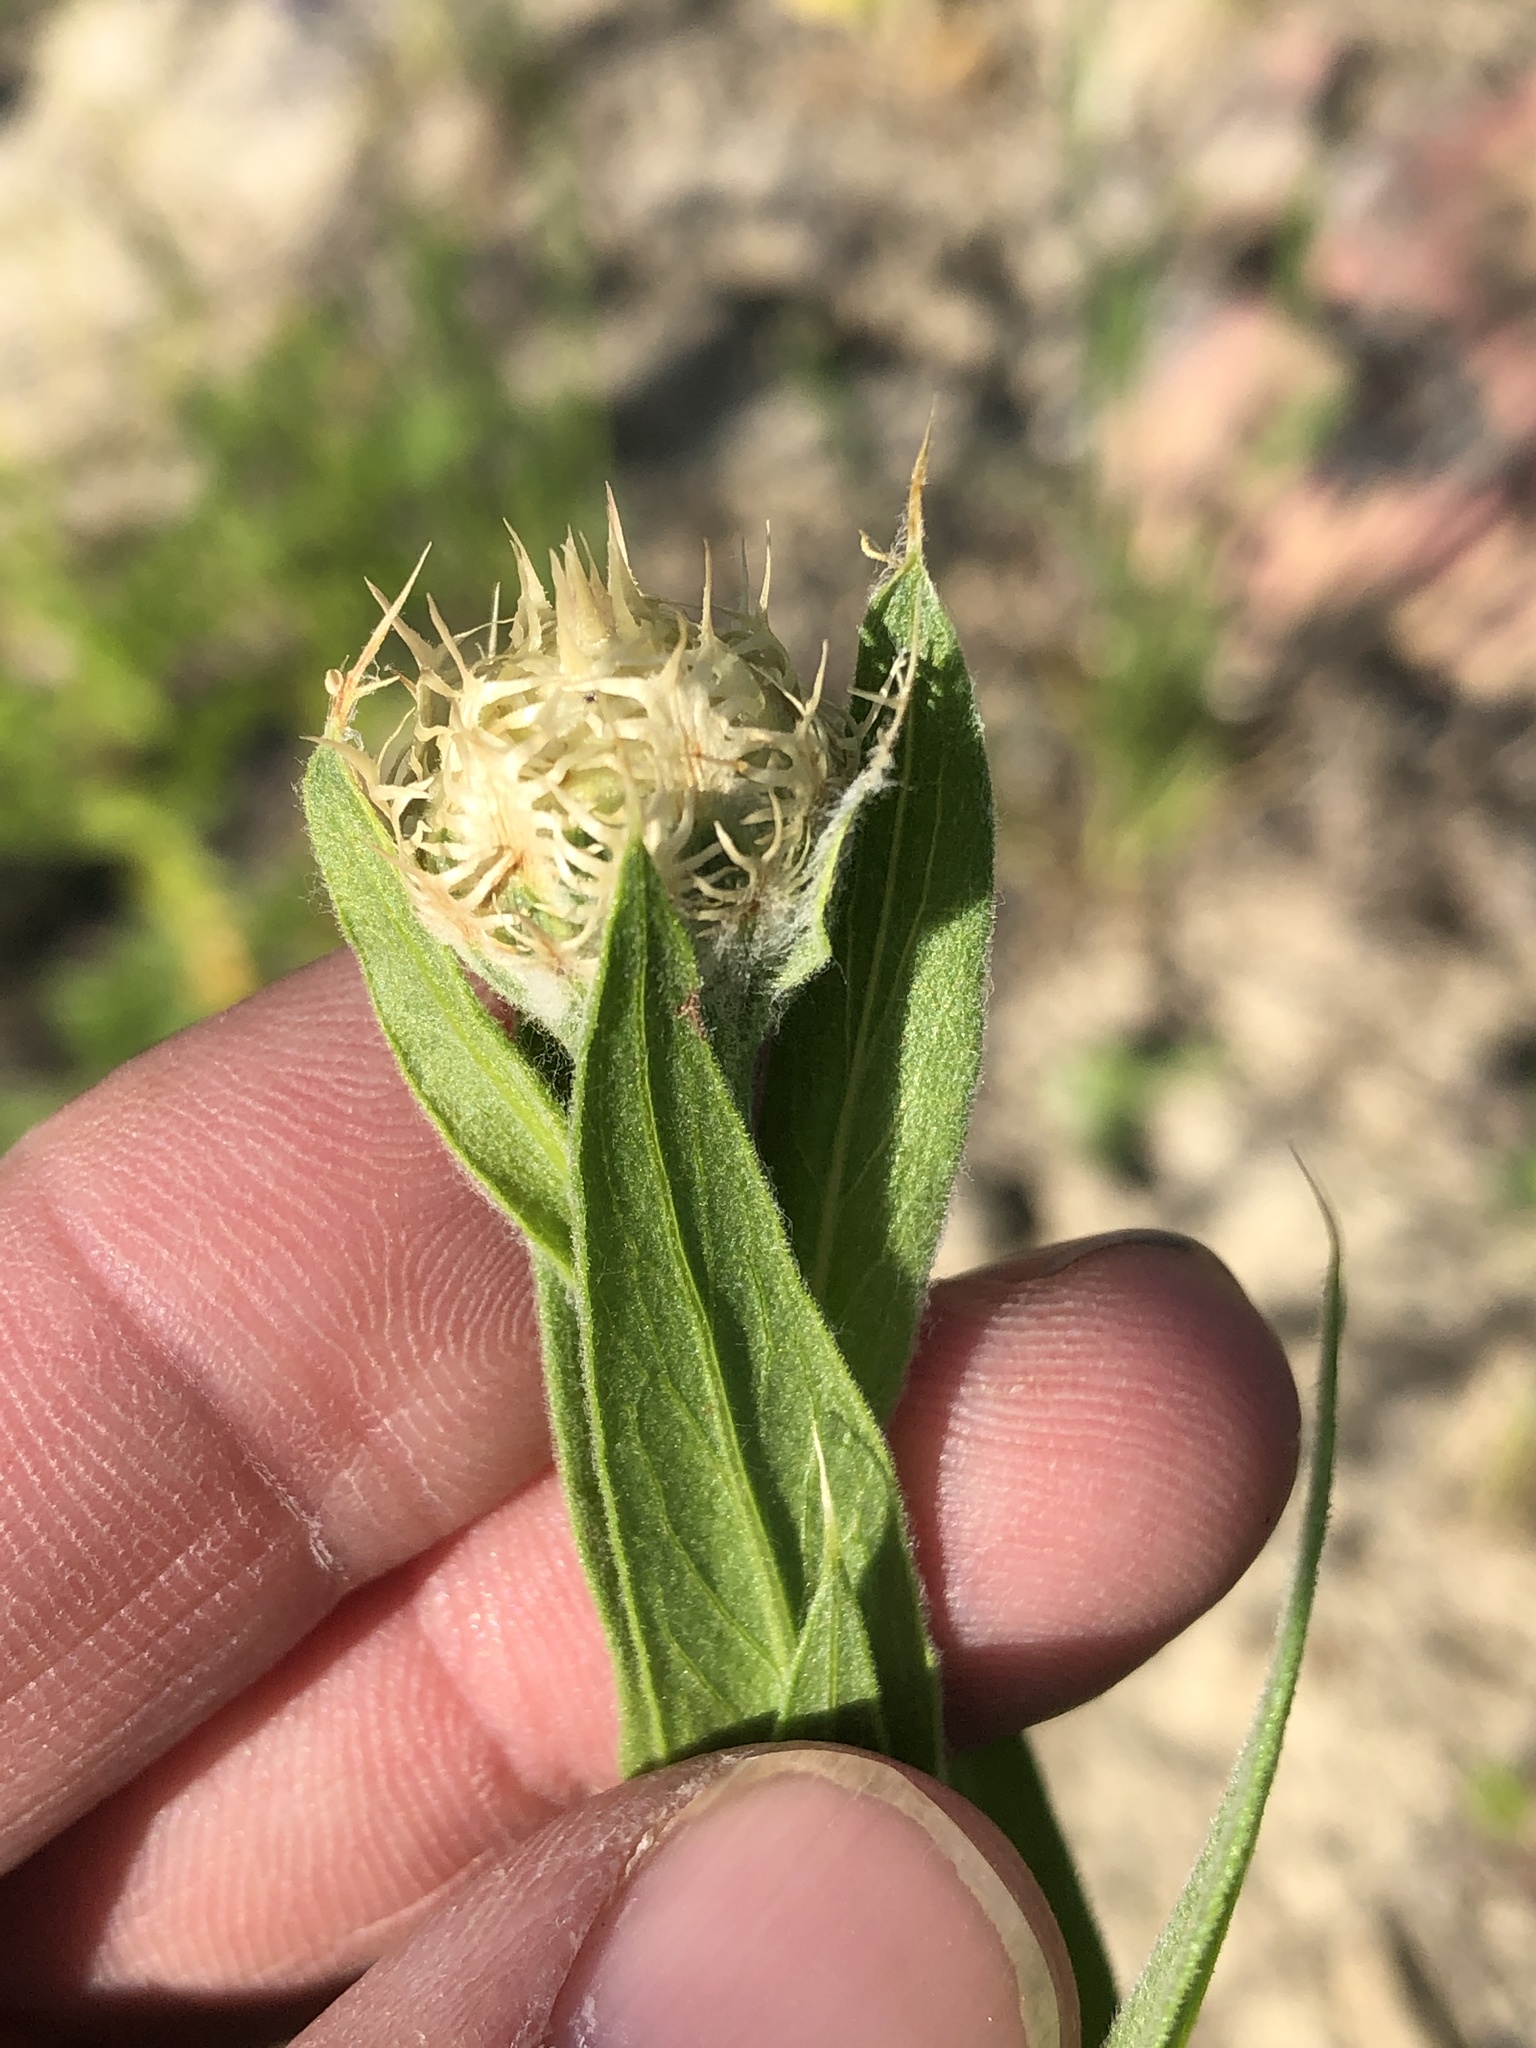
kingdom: Plantae
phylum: Tracheophyta
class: Magnoliopsida
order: Asterales
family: Asteraceae
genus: Plectocephalus
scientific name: Plectocephalus americanus
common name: American basket-flower
